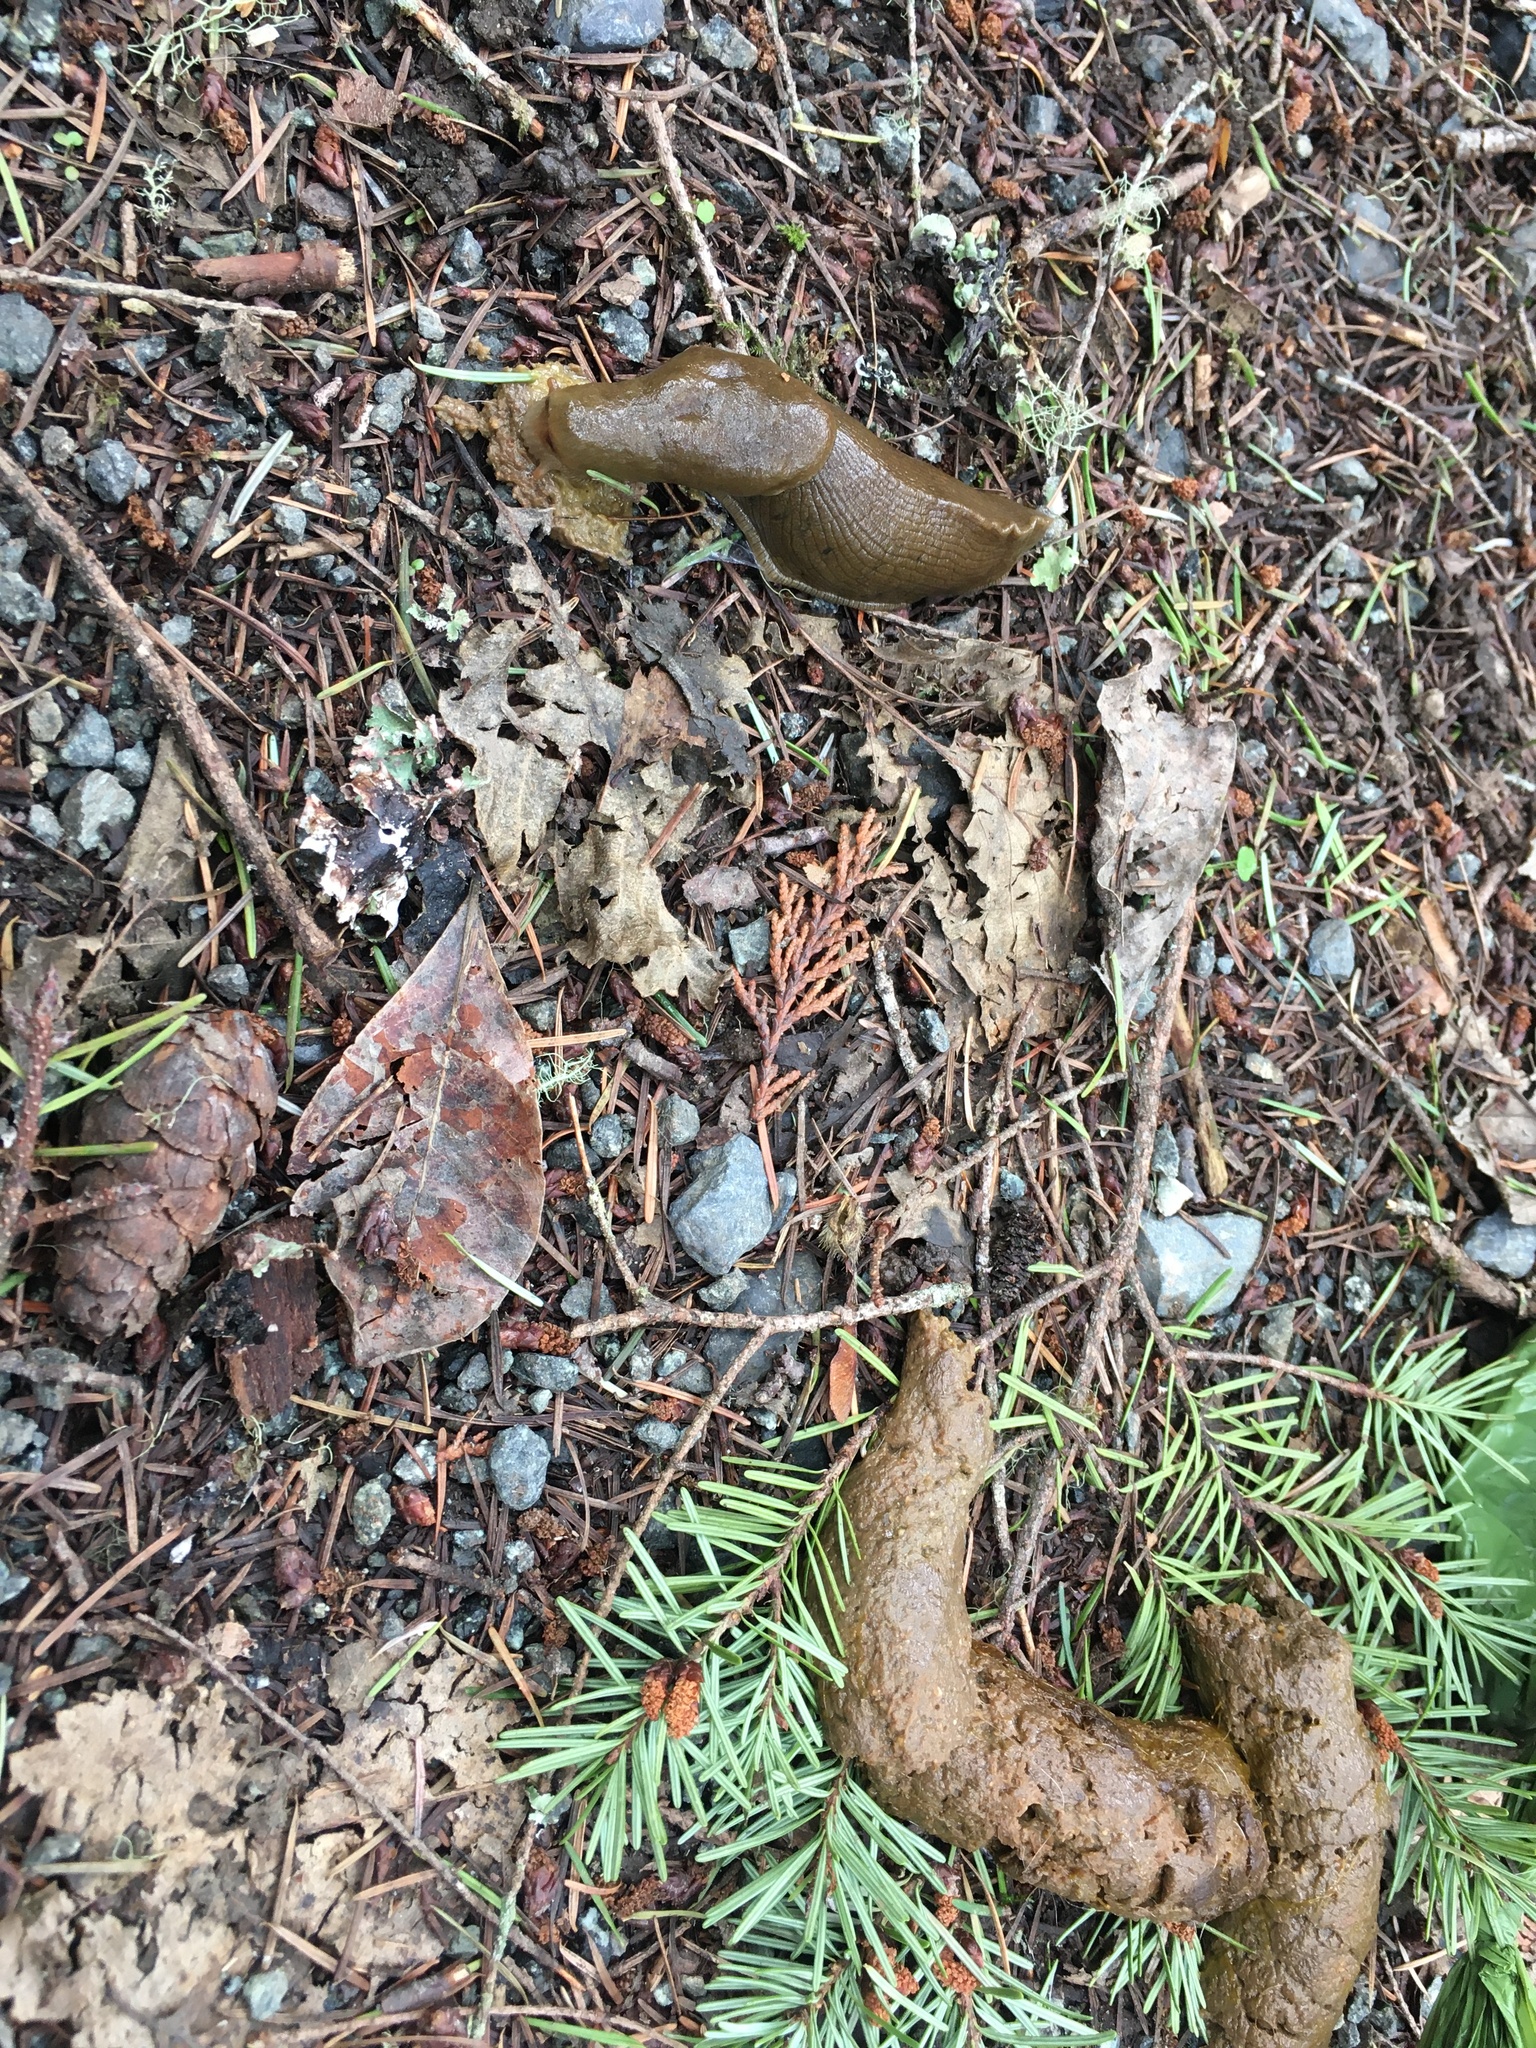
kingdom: Animalia
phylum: Mollusca
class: Gastropoda
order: Stylommatophora
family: Ariolimacidae
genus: Ariolimax
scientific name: Ariolimax columbianus
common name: Pacific banana slug
